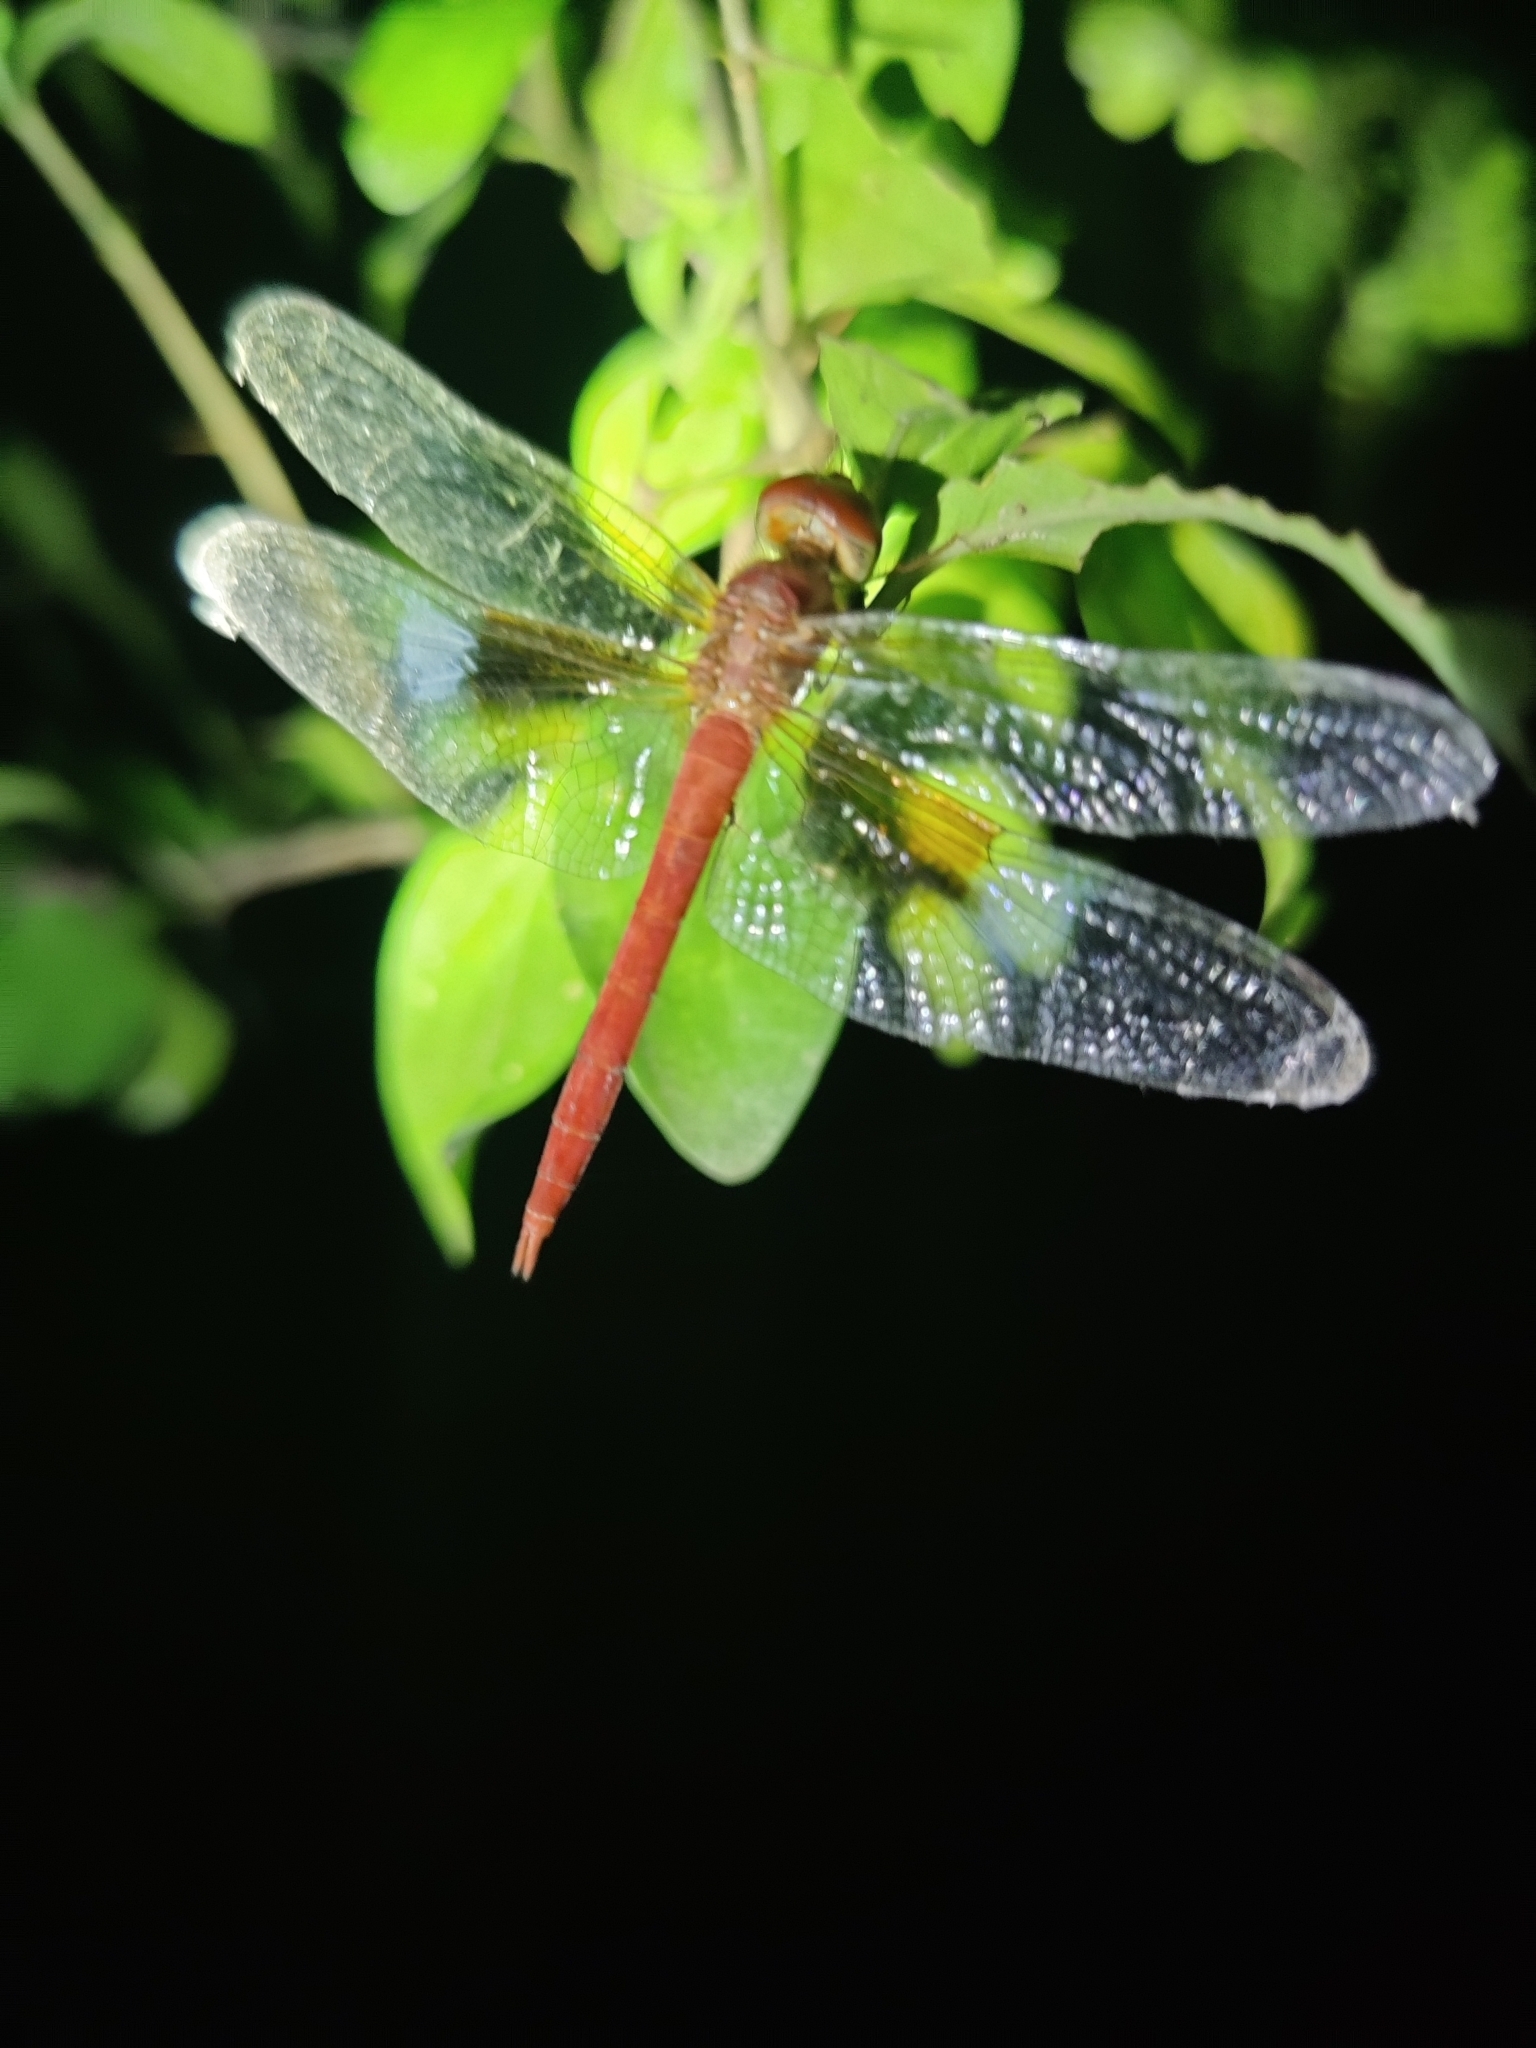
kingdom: Animalia
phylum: Arthropoda
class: Insecta
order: Odonata
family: Libellulidae
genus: Tholymis
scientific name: Tholymis tillarga
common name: Coral-tailed cloud wing
